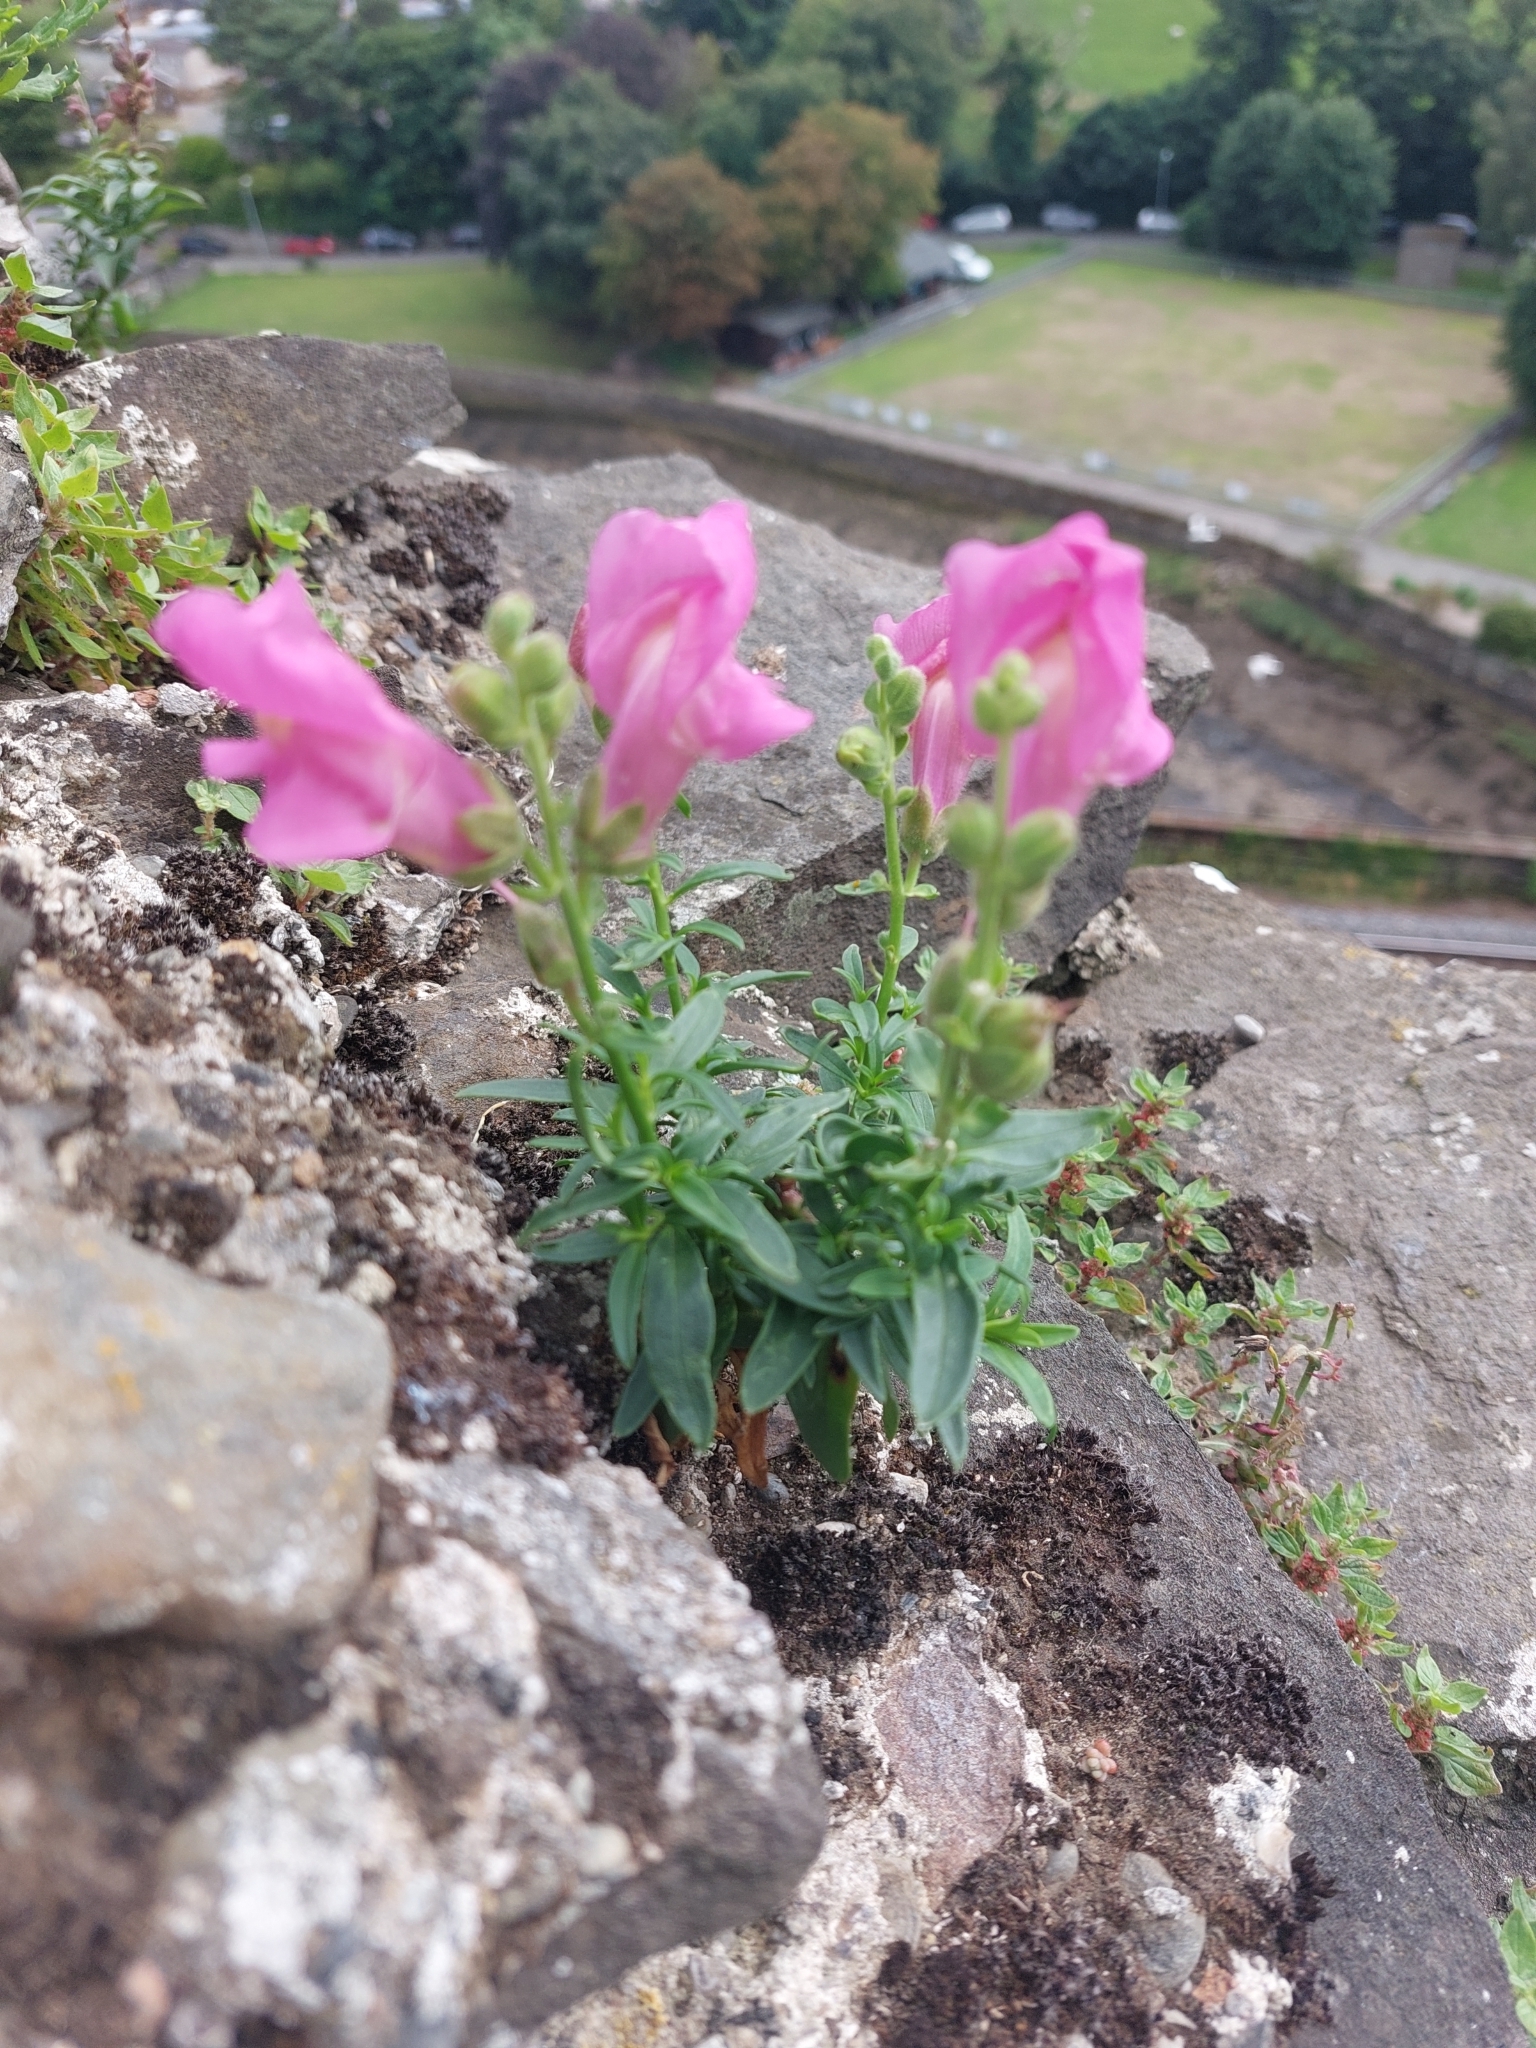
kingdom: Plantae
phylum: Tracheophyta
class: Magnoliopsida
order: Lamiales
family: Plantaginaceae
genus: Antirrhinum
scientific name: Antirrhinum majus
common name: Snapdragon
